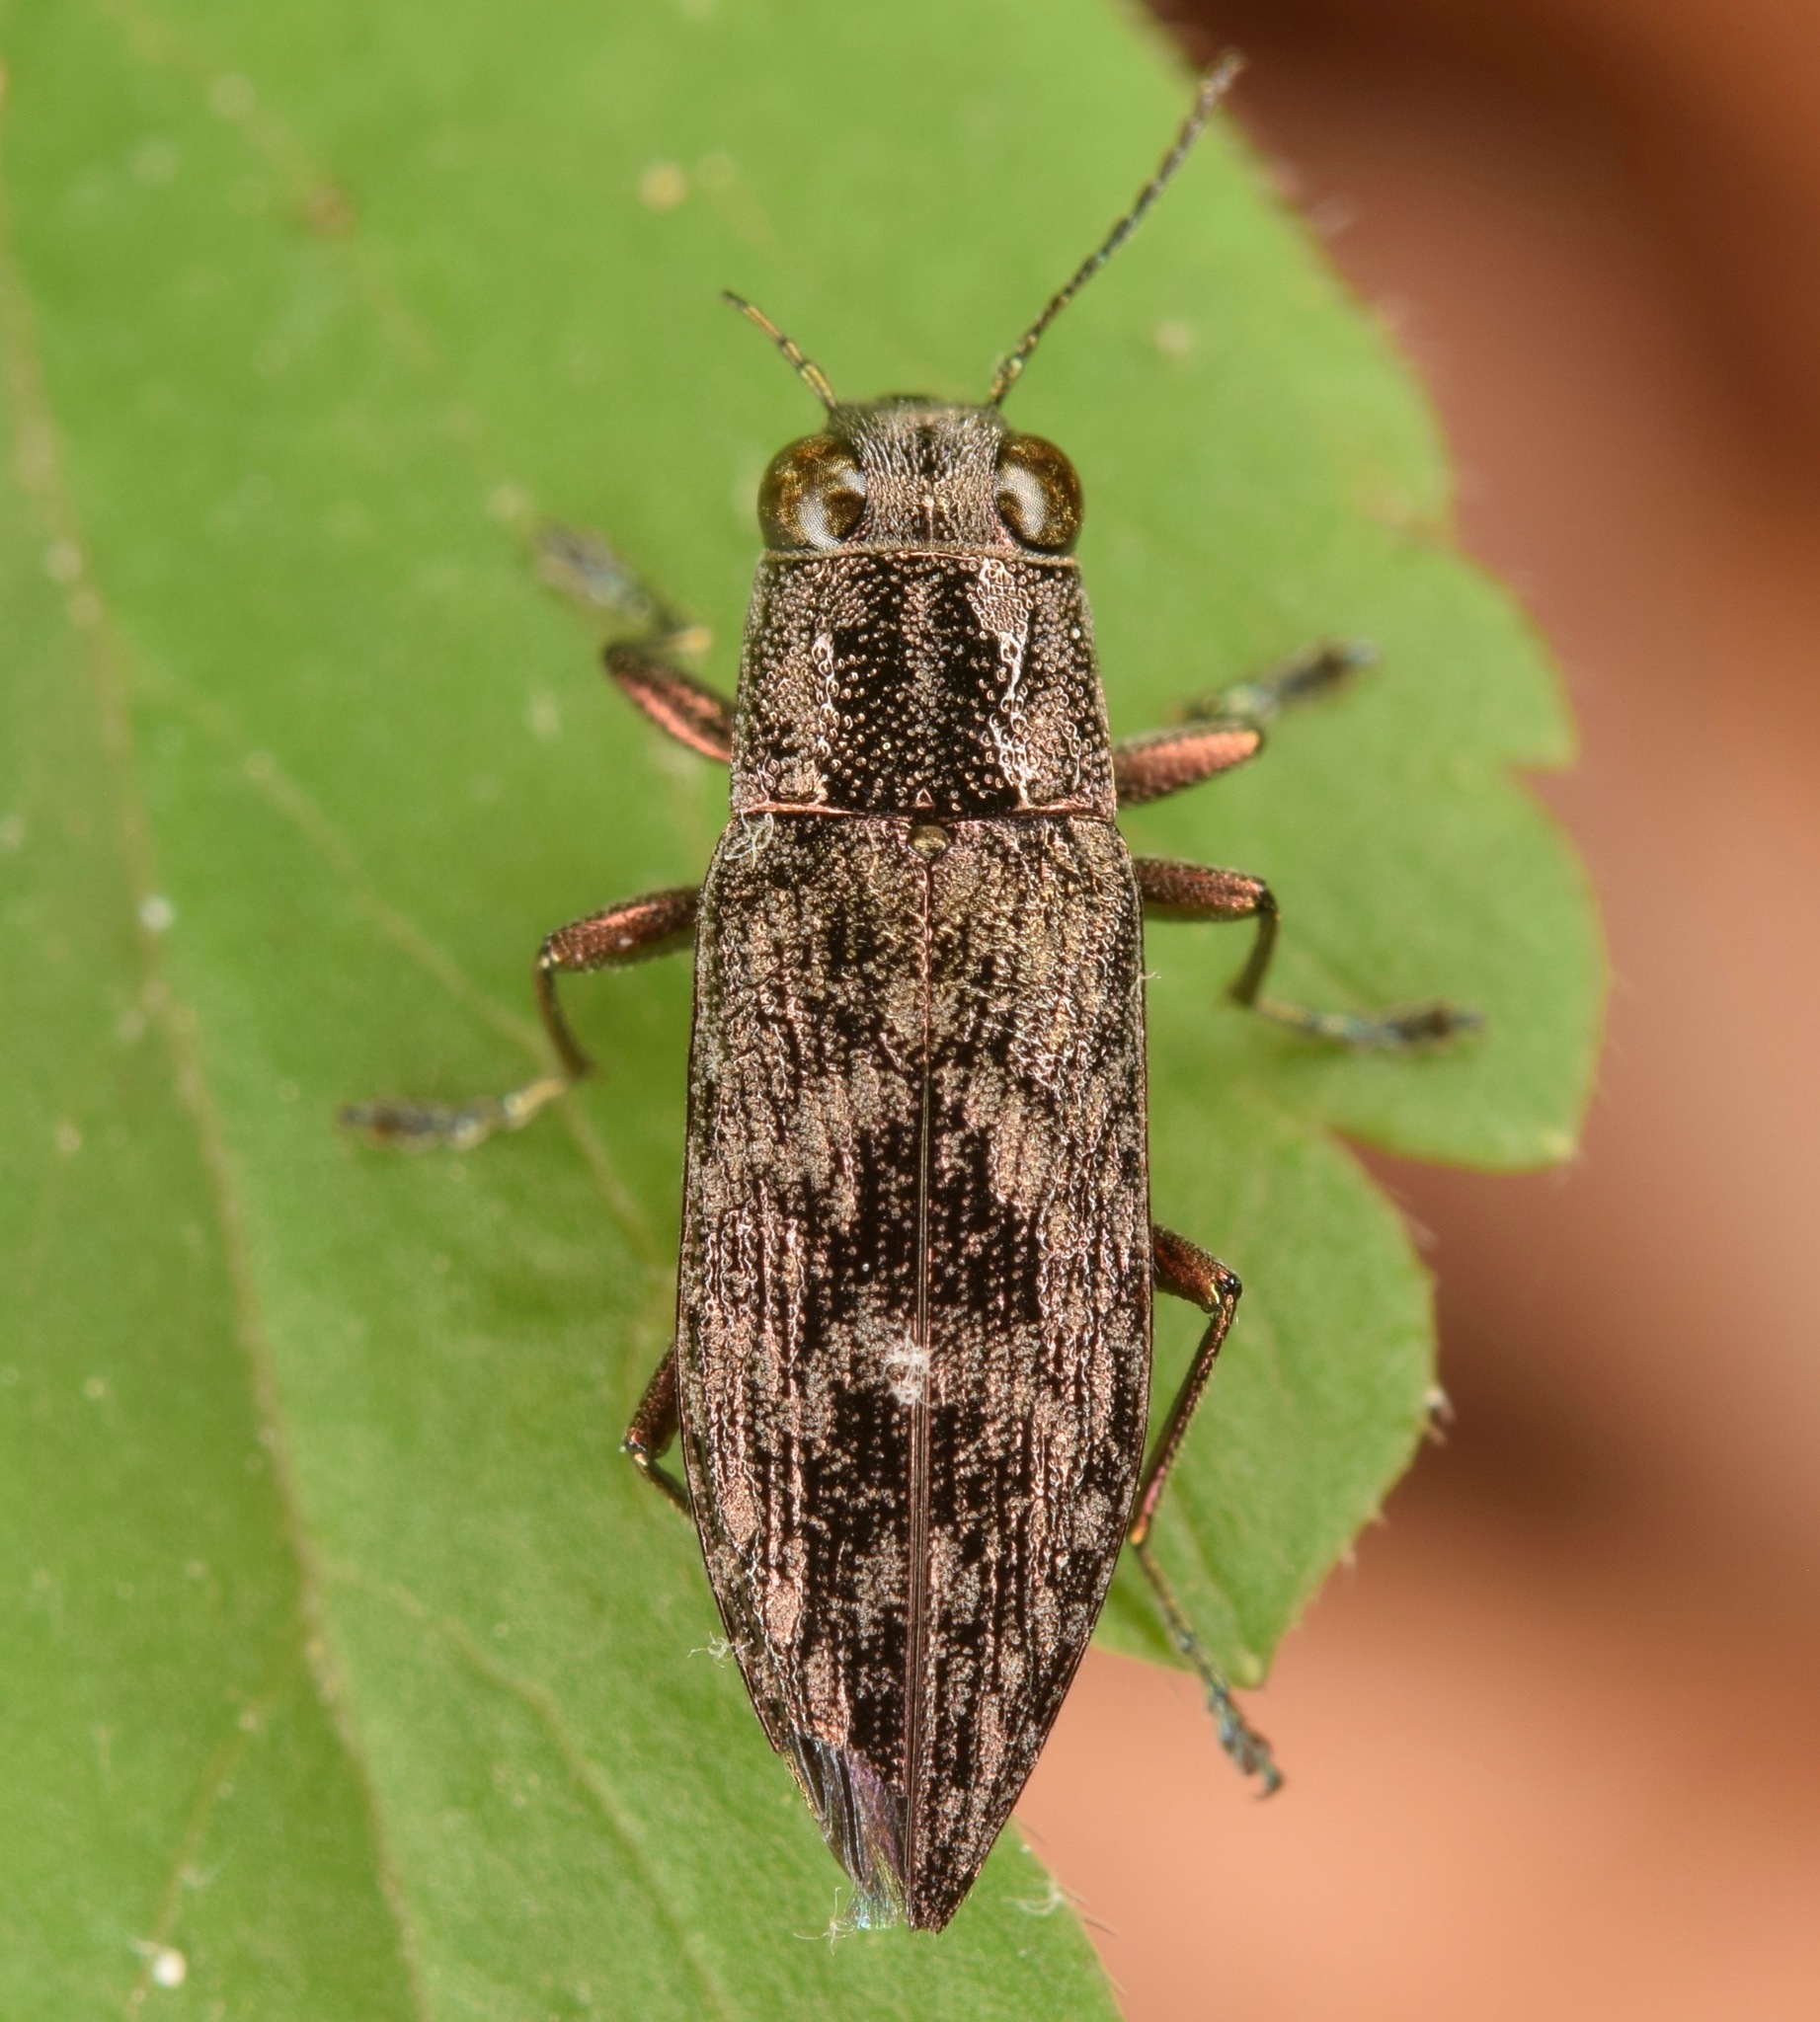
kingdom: Animalia
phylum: Arthropoda
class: Insecta
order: Coleoptera
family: Buprestidae
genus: Spectralia
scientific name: Spectralia gracilipes
